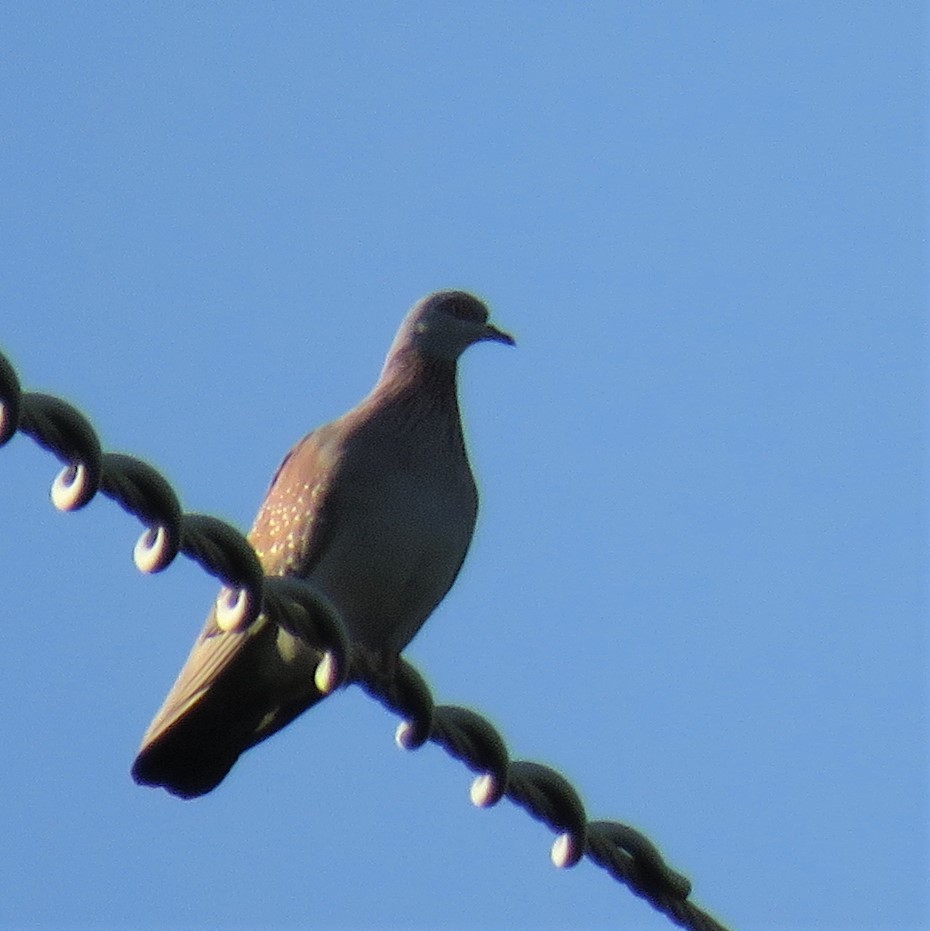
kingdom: Animalia
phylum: Chordata
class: Aves
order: Columbiformes
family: Columbidae
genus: Columba
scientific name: Columba guinea
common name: Speckled pigeon
